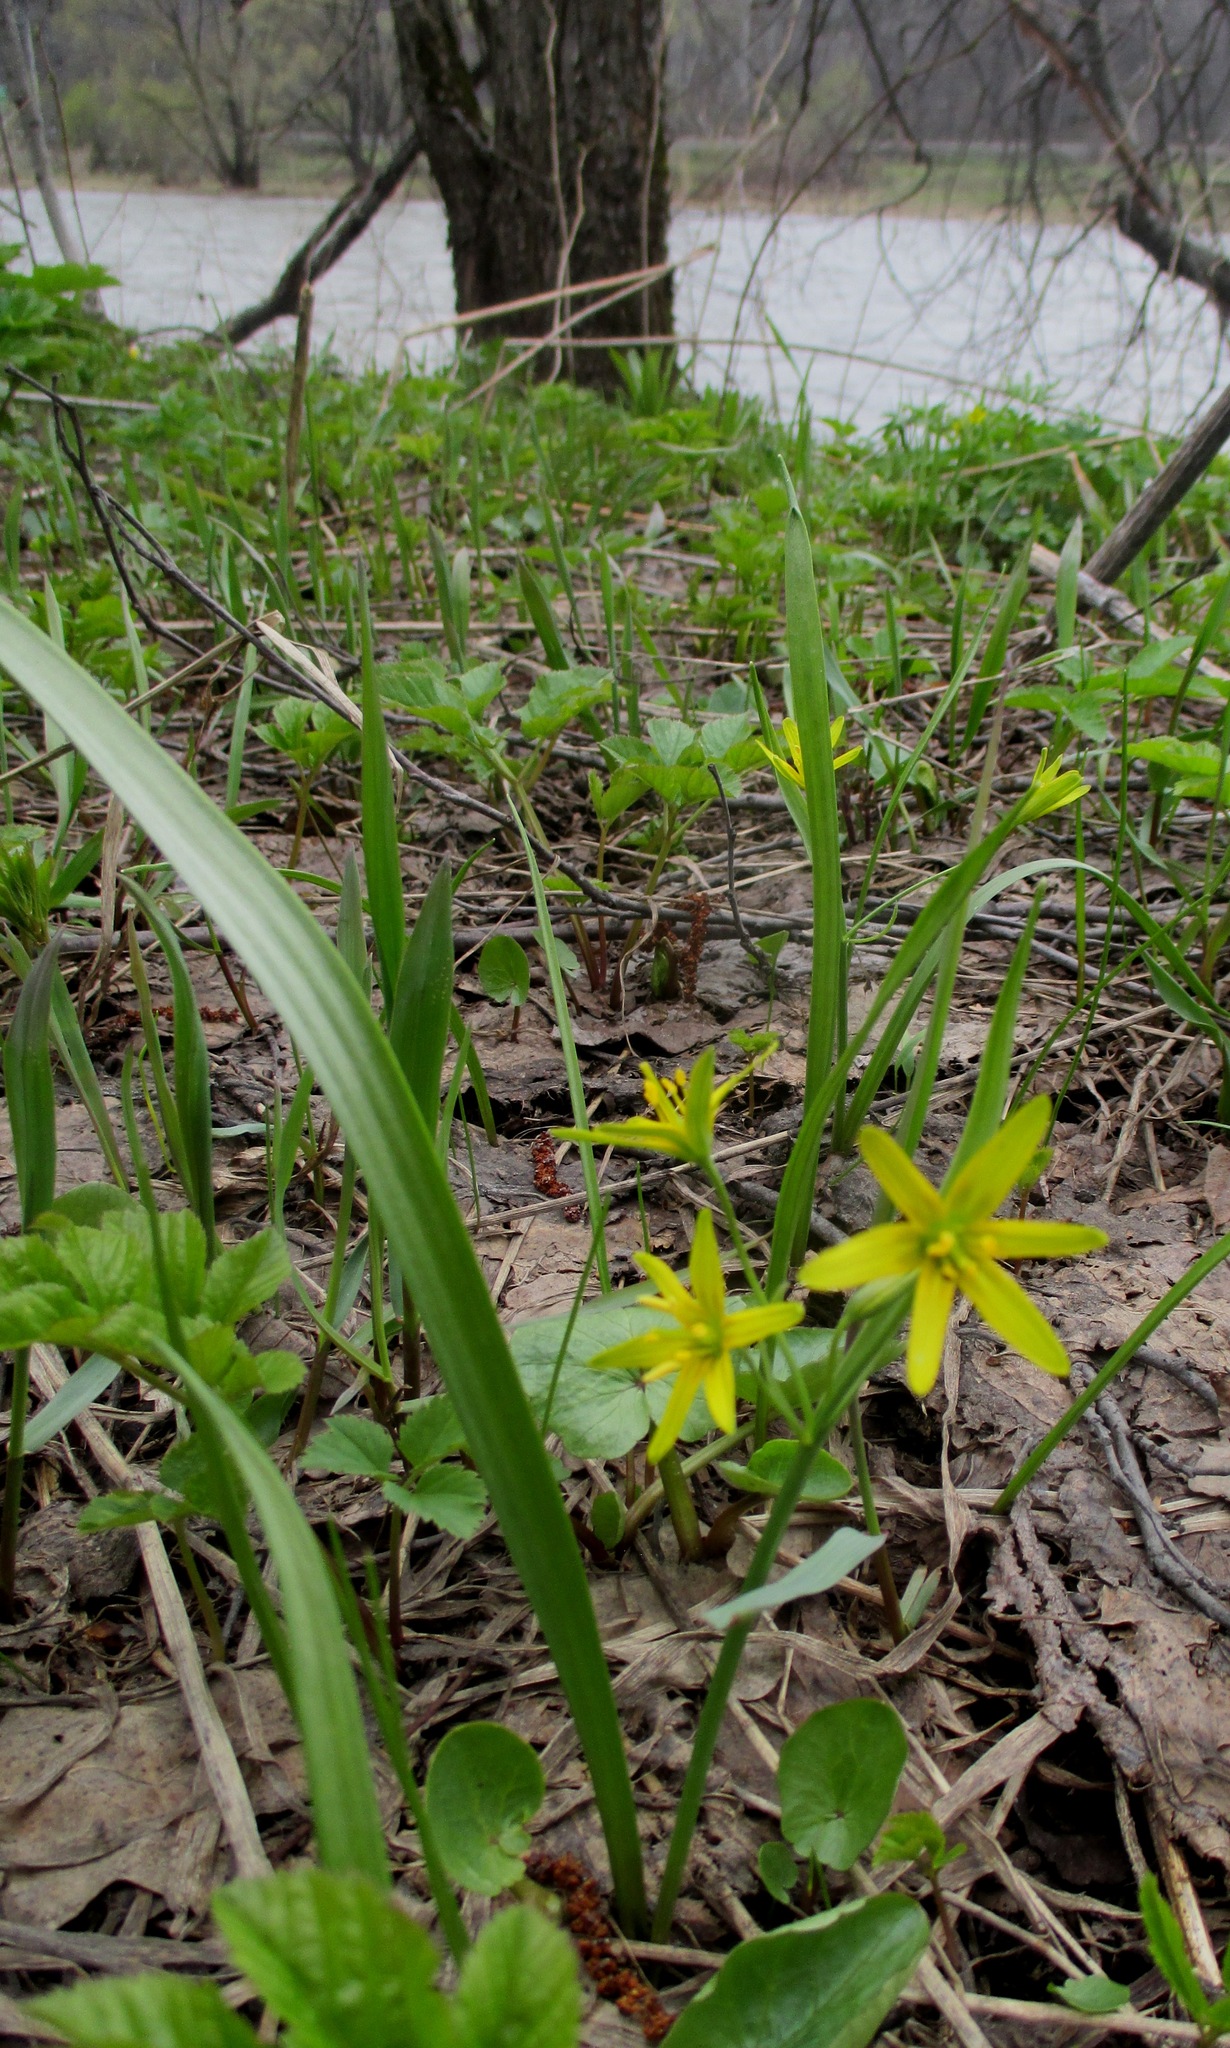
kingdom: Plantae
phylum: Tracheophyta
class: Liliopsida
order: Liliales
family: Liliaceae
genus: Gagea
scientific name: Gagea lutea
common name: Yellow star-of-bethlehem
